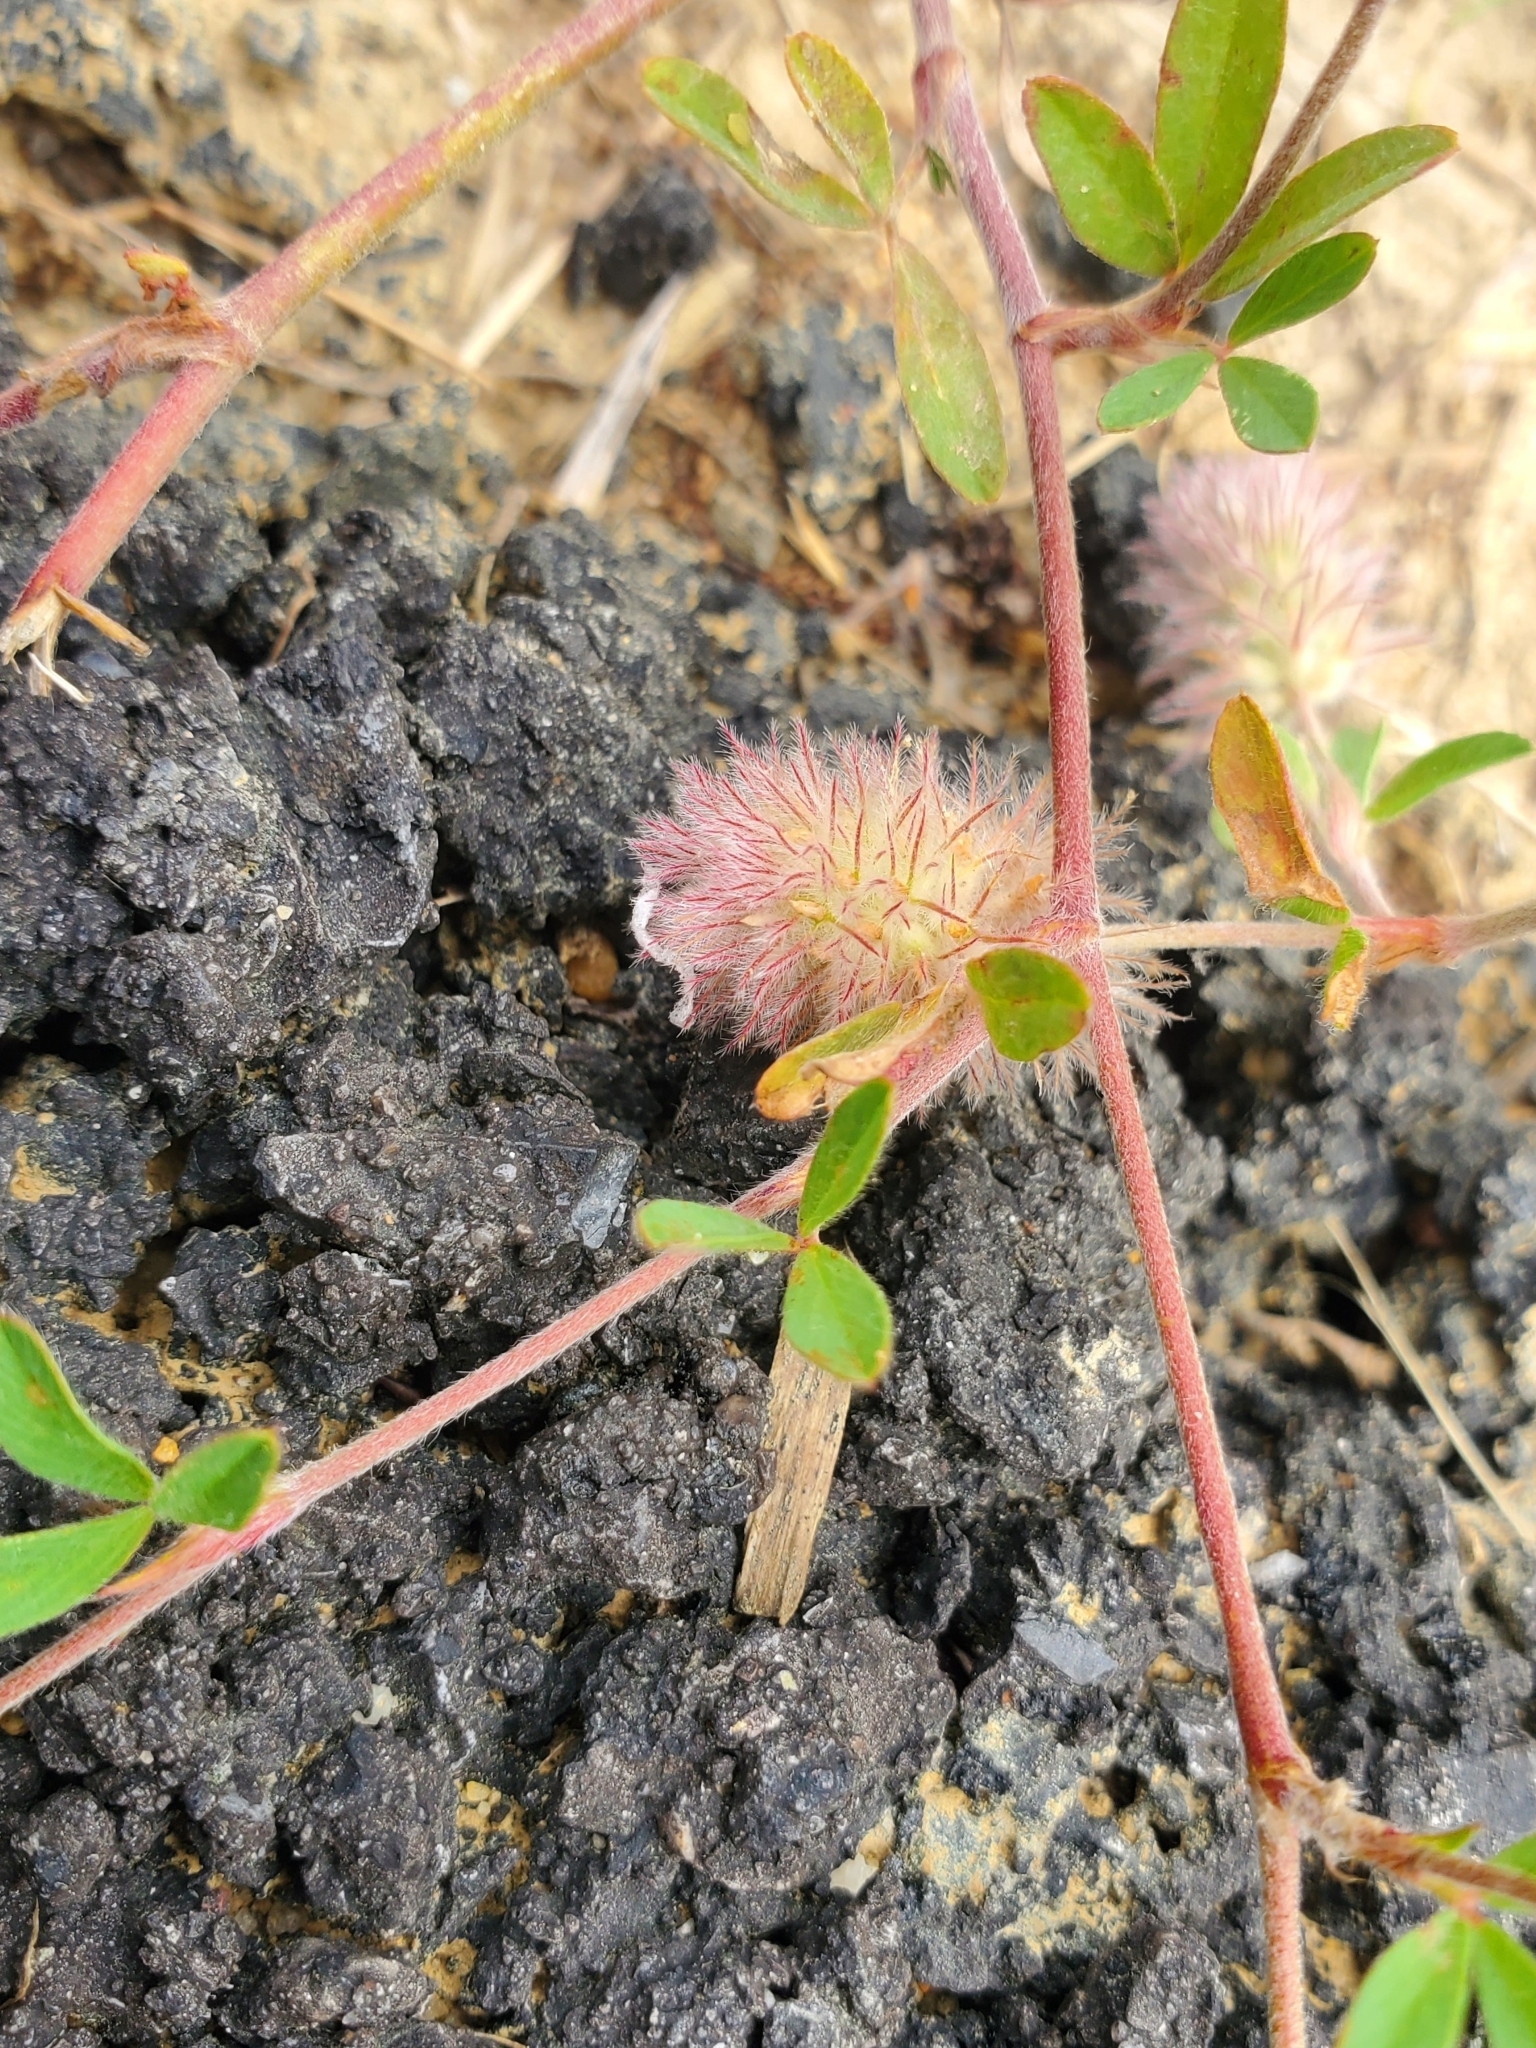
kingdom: Plantae
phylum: Tracheophyta
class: Magnoliopsida
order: Fabales
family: Fabaceae
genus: Trifolium
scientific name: Trifolium arvense
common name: Hare's-foot clover
